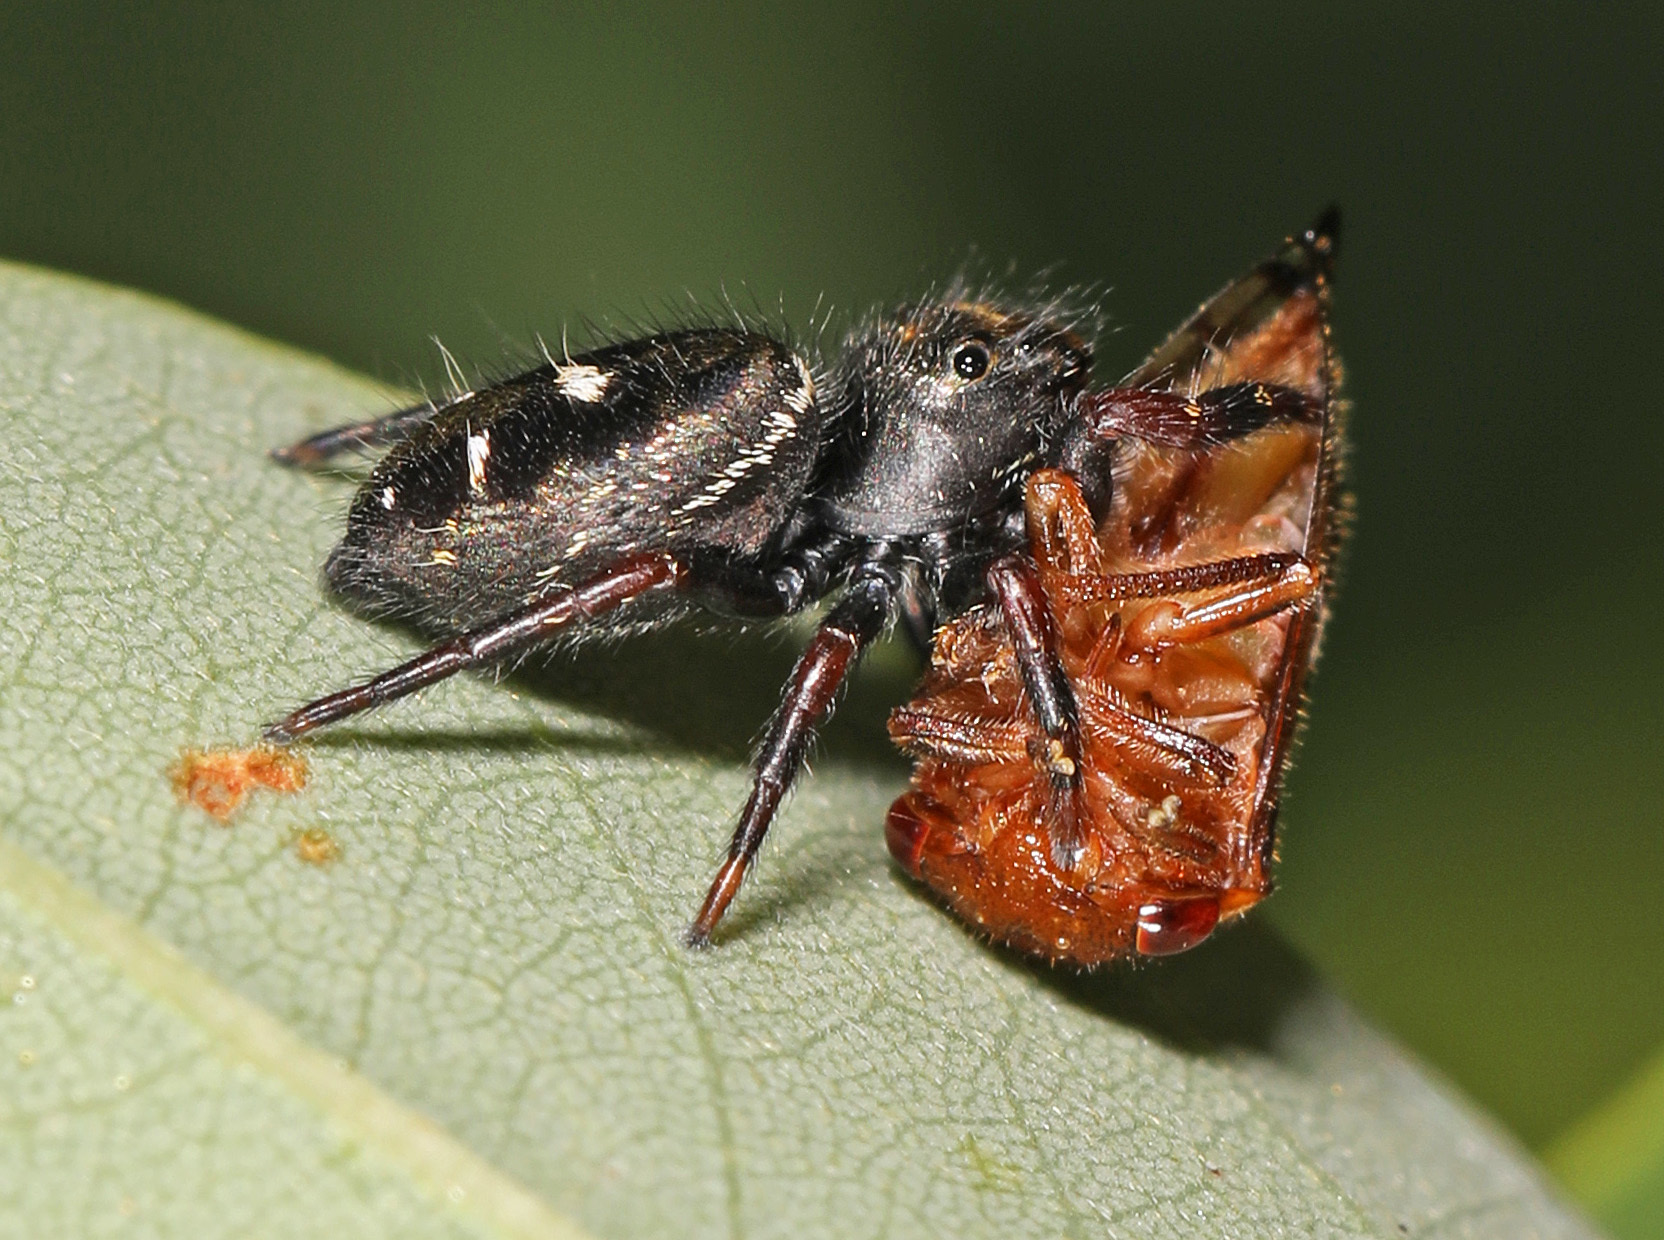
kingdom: Animalia
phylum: Arthropoda
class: Arachnida
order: Araneae
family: Salticidae
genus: Phidippus
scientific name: Phidippus audax
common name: Bold jumper
